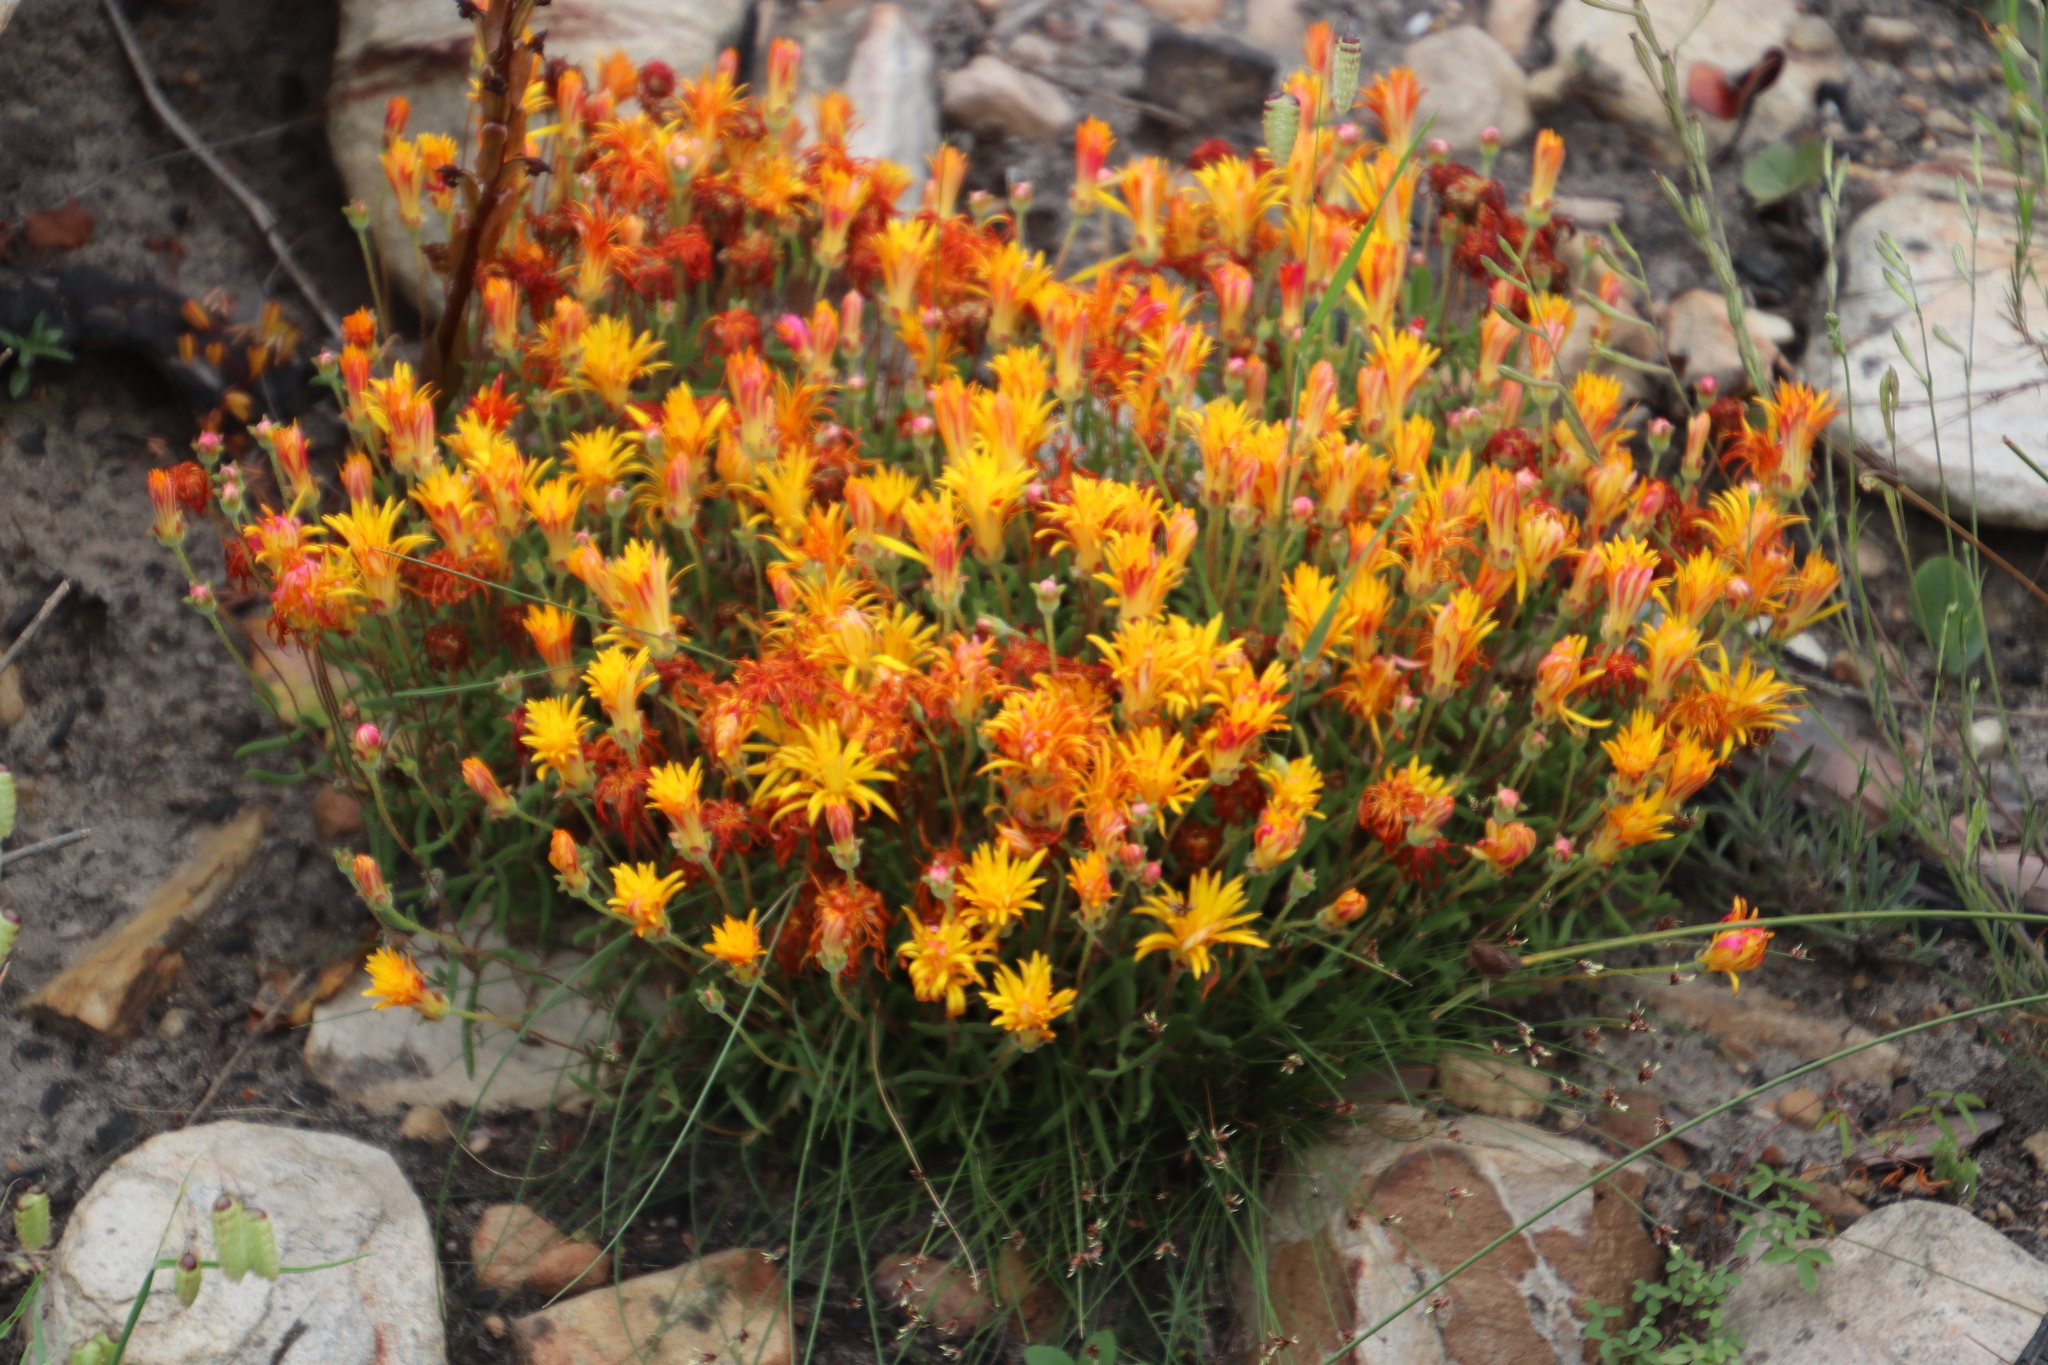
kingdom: Plantae
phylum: Tracheophyta
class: Magnoliopsida
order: Caryophyllales
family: Aizoaceae
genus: Drosanthemum
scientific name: Drosanthemum flavum
